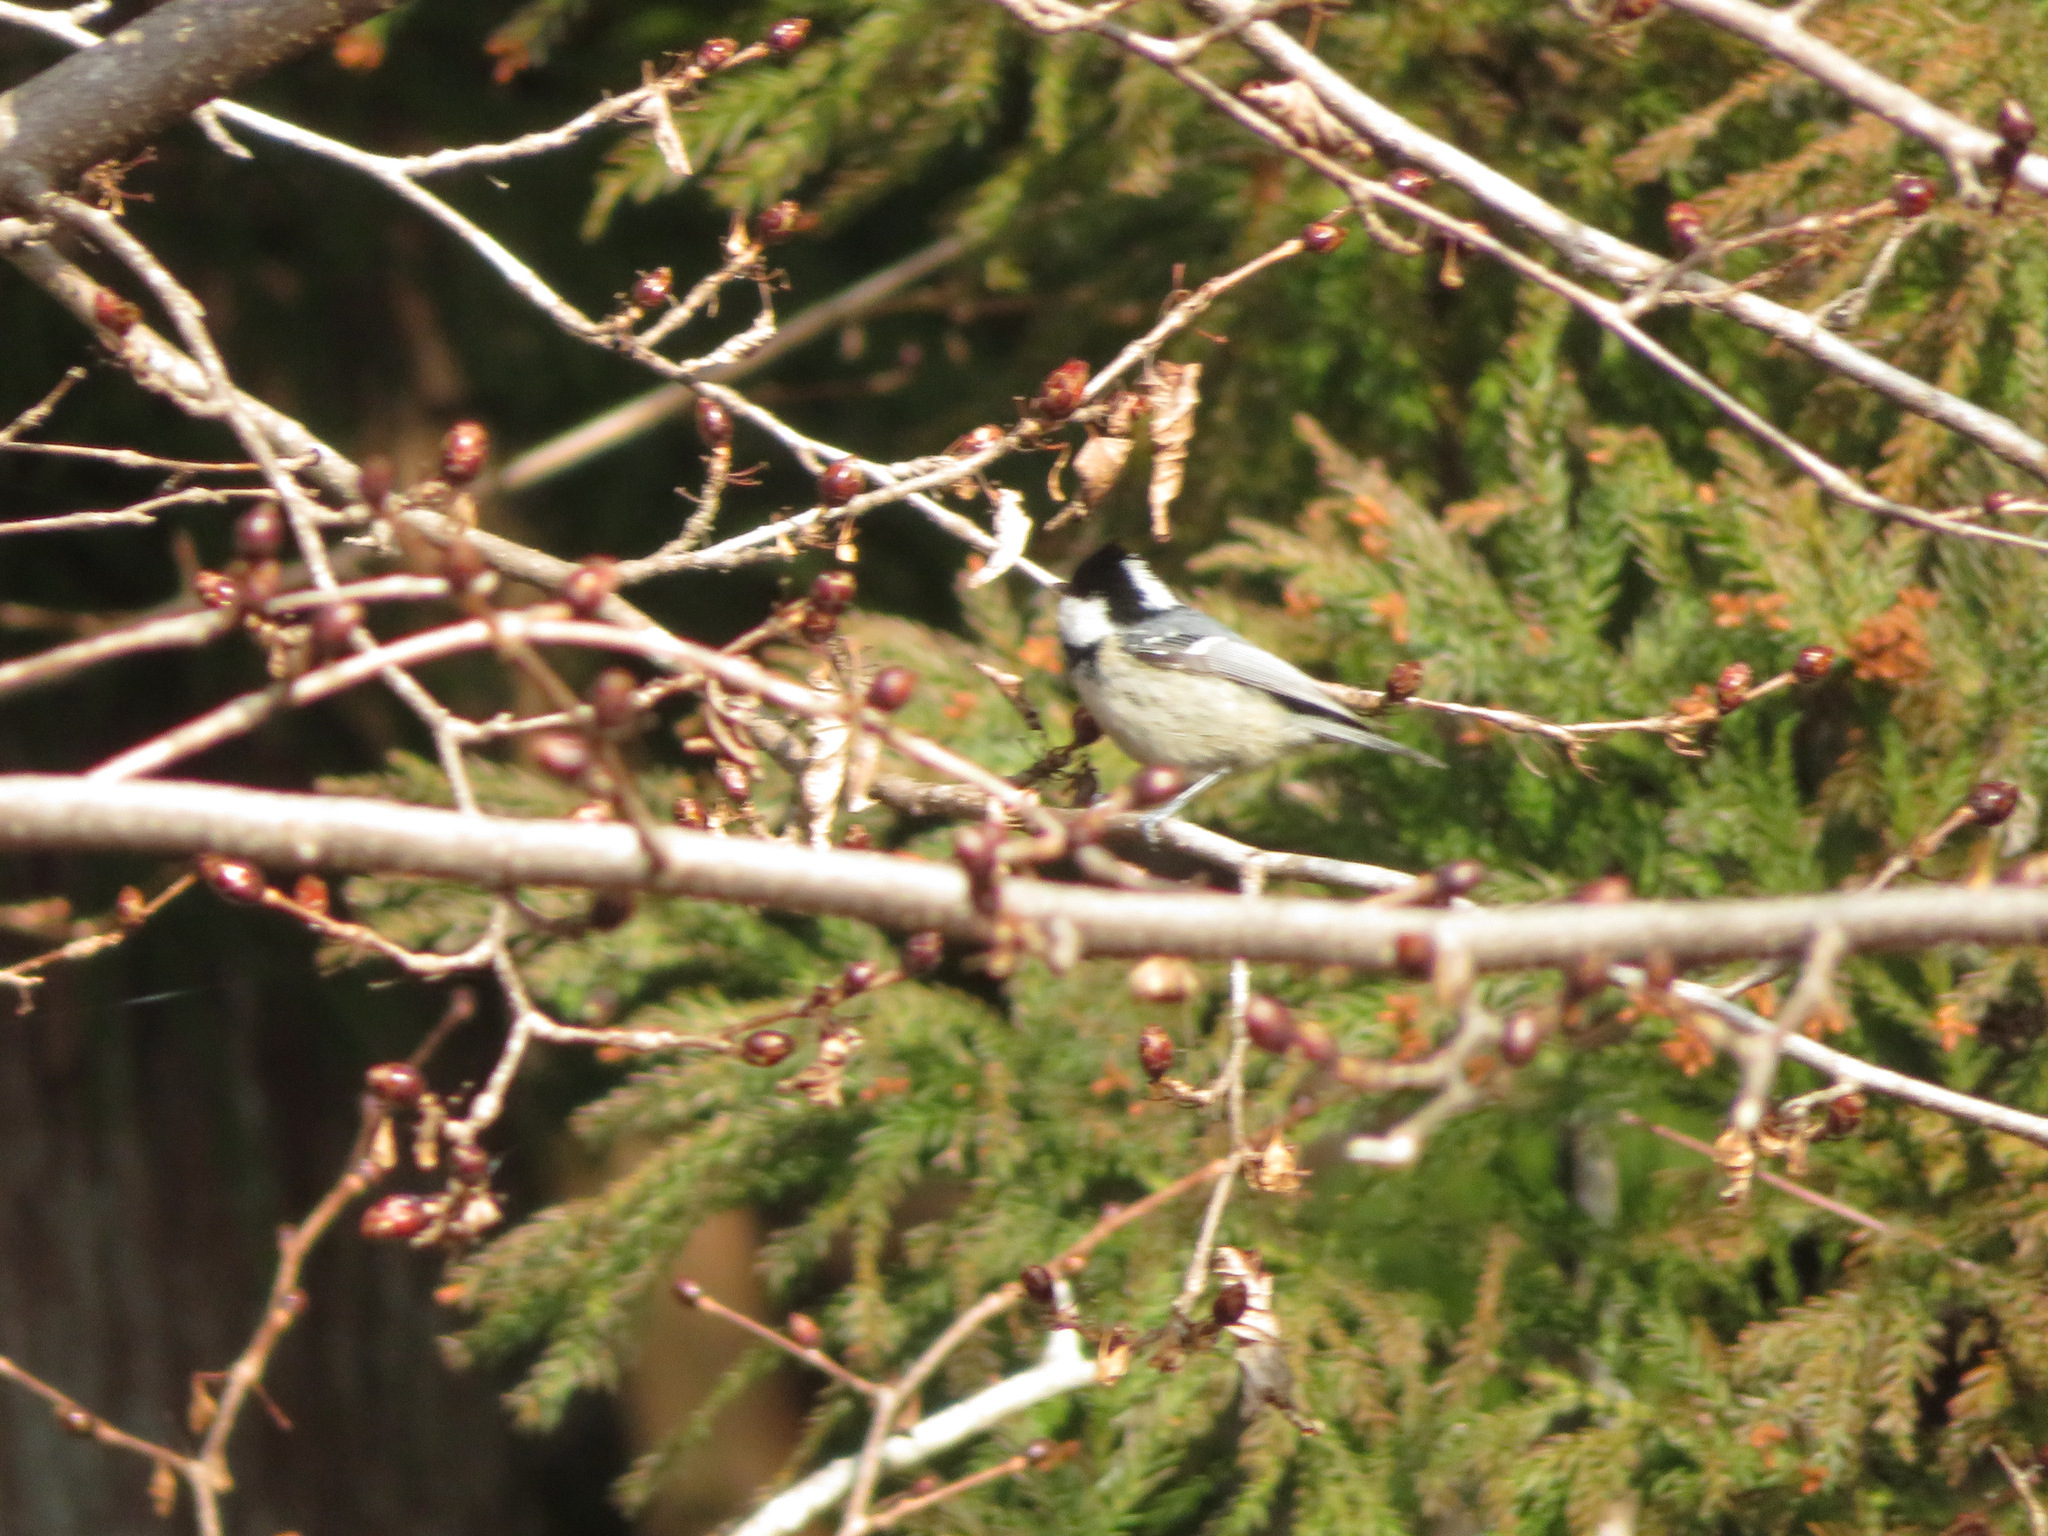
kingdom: Animalia
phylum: Chordata
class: Aves
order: Passeriformes
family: Paridae
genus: Periparus
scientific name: Periparus ater
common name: Coal tit
